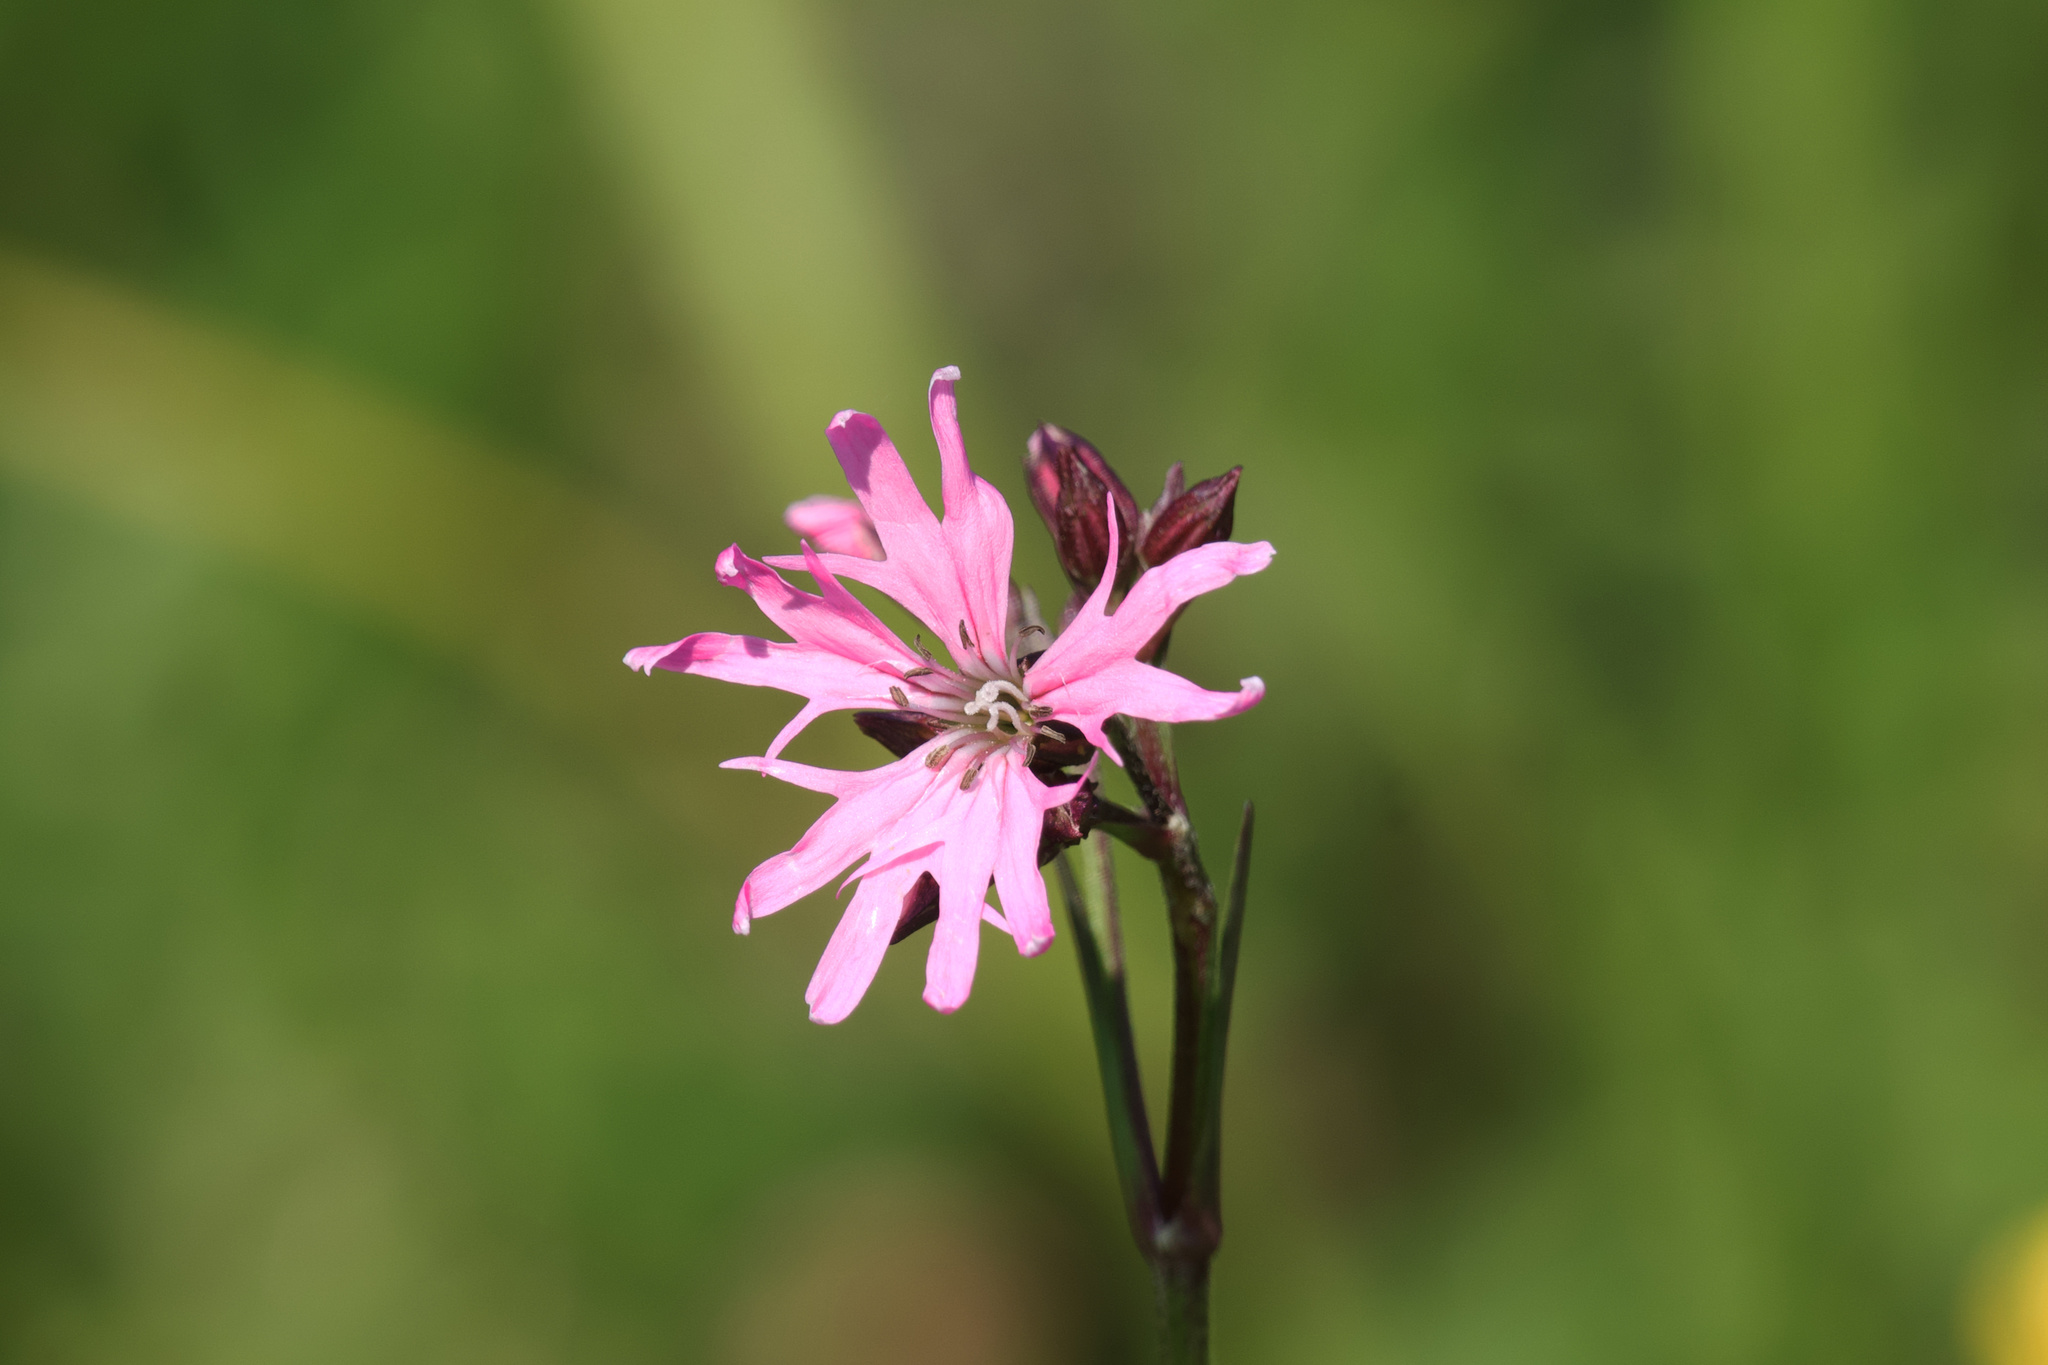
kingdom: Plantae
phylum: Tracheophyta
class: Magnoliopsida
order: Caryophyllales
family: Caryophyllaceae
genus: Silene
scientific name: Silene flos-cuculi
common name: Ragged-robin
